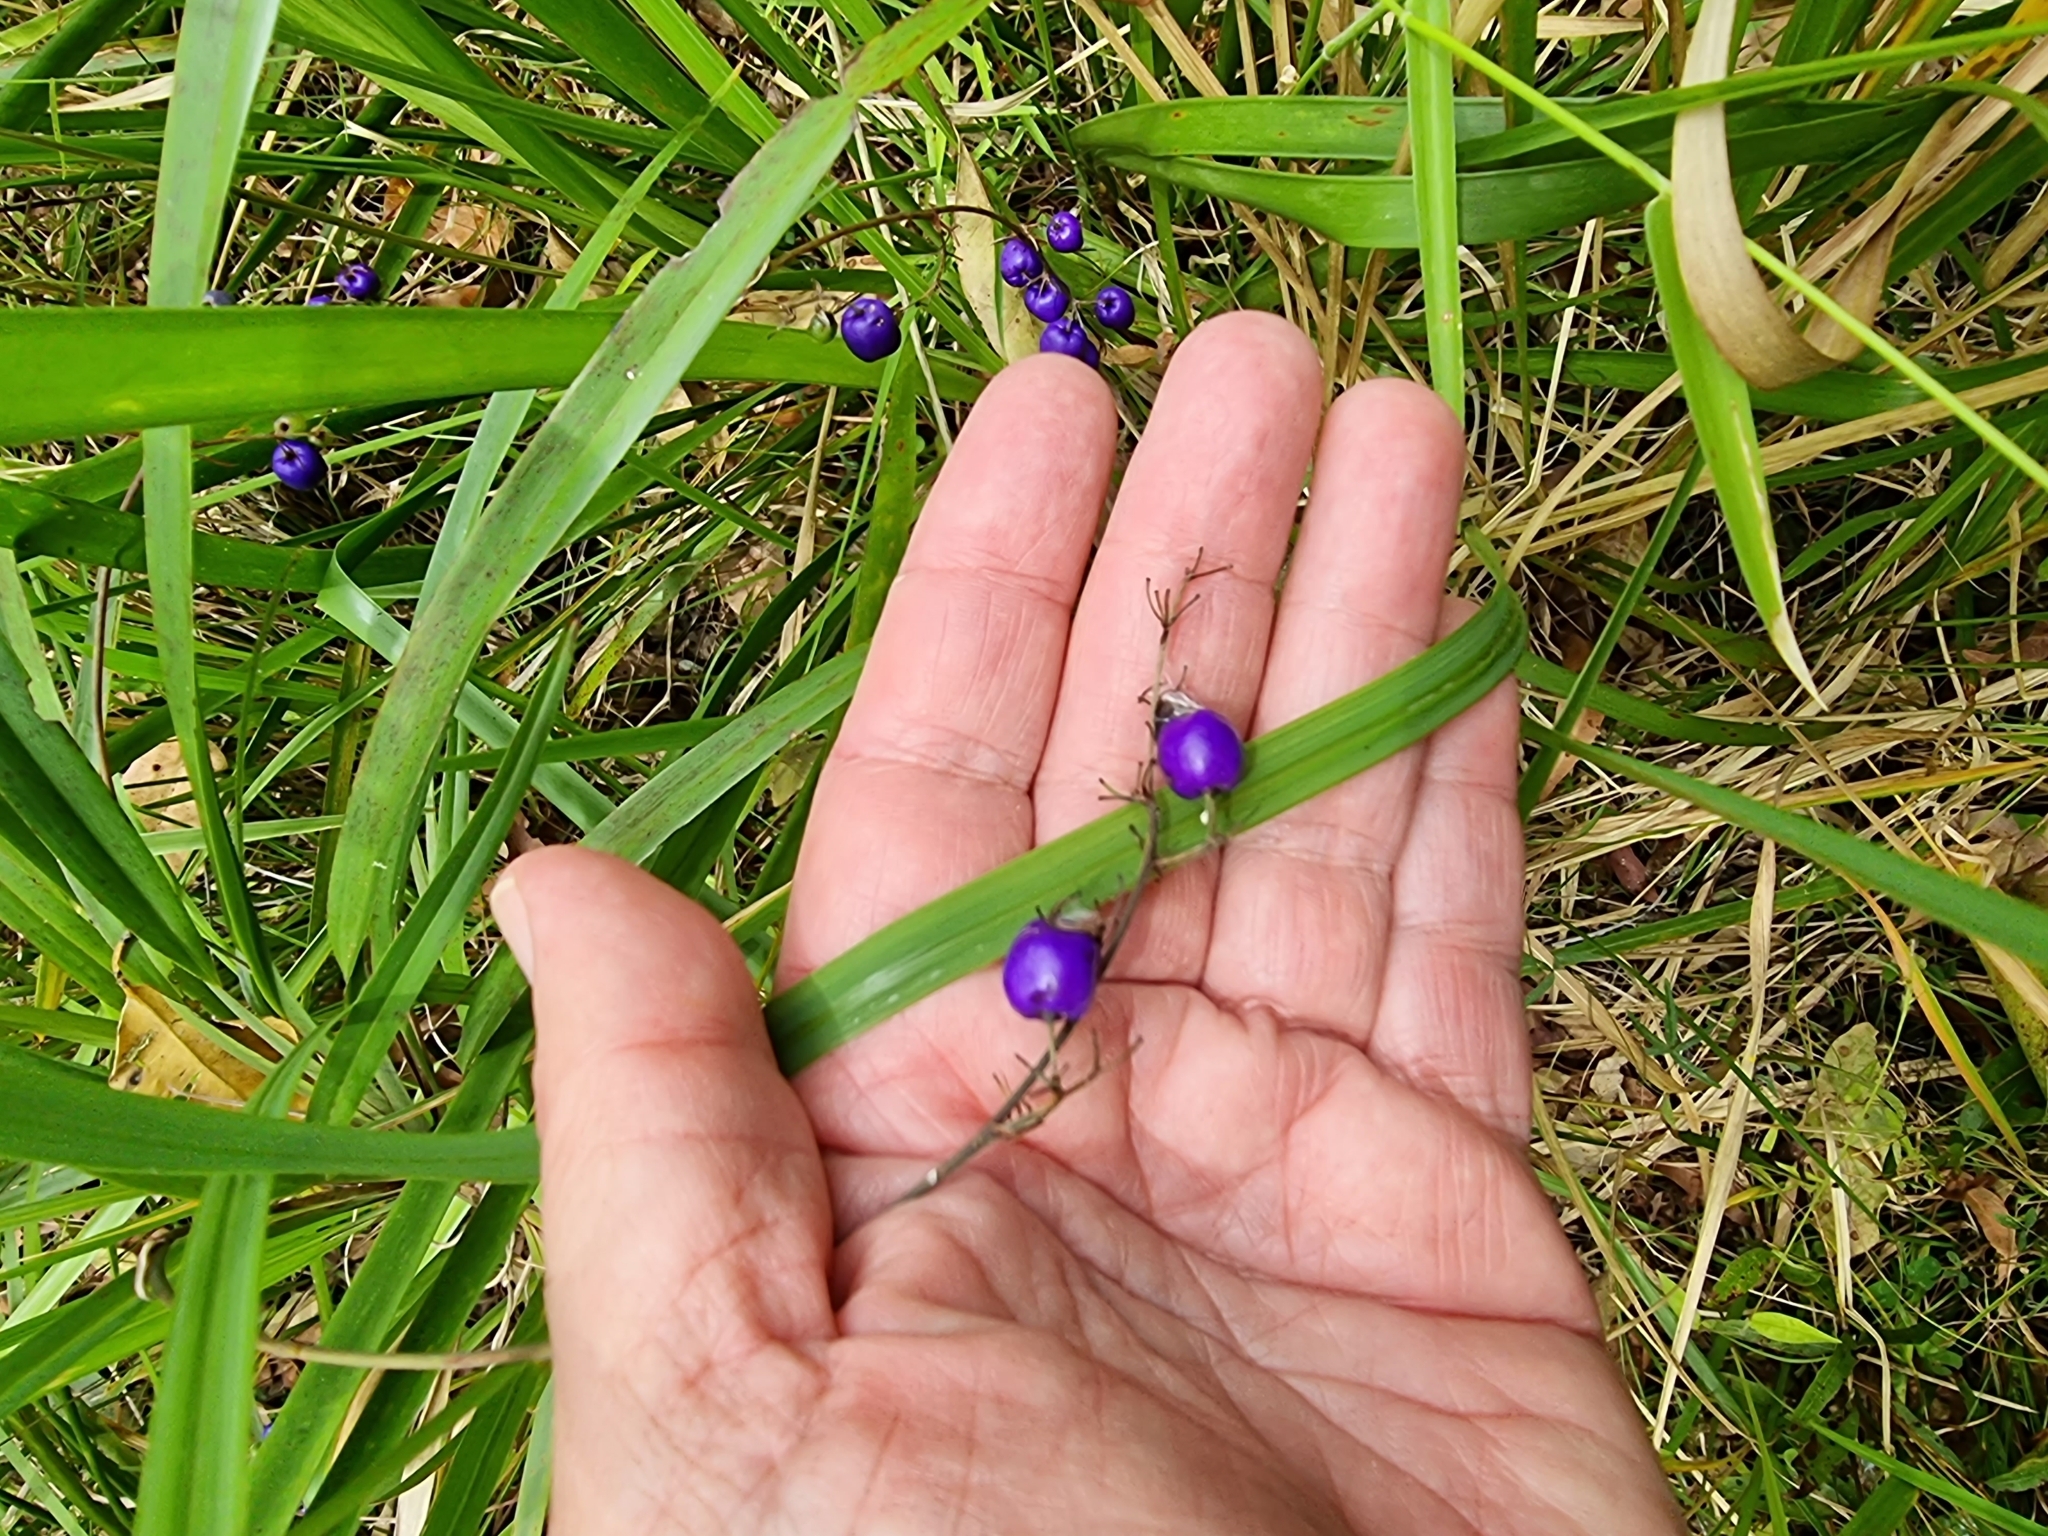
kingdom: Plantae
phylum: Tracheophyta
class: Liliopsida
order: Asparagales
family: Asphodelaceae
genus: Dianella
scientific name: Dianella caerulea
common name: Blue flax-lily
